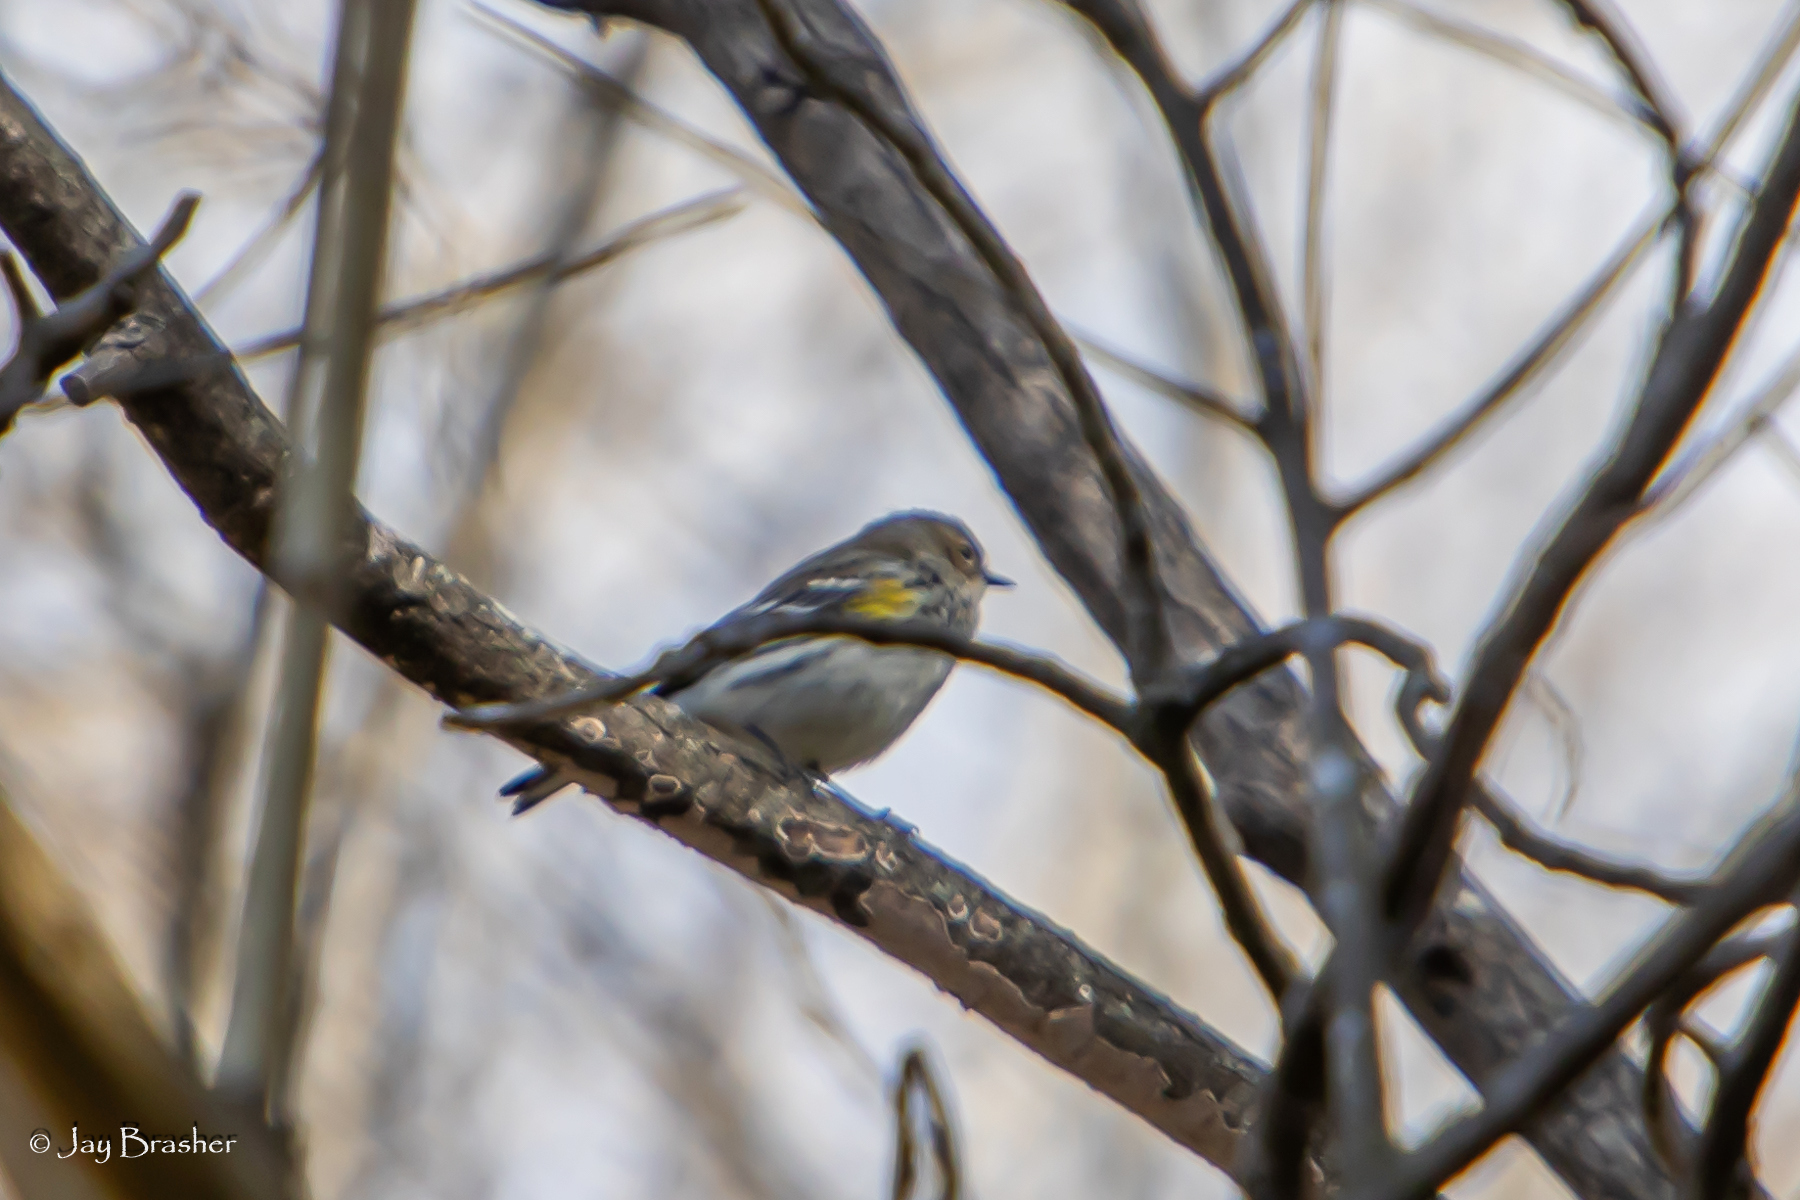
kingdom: Animalia
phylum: Chordata
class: Aves
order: Passeriformes
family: Parulidae
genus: Setophaga
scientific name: Setophaga coronata
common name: Myrtle warbler
